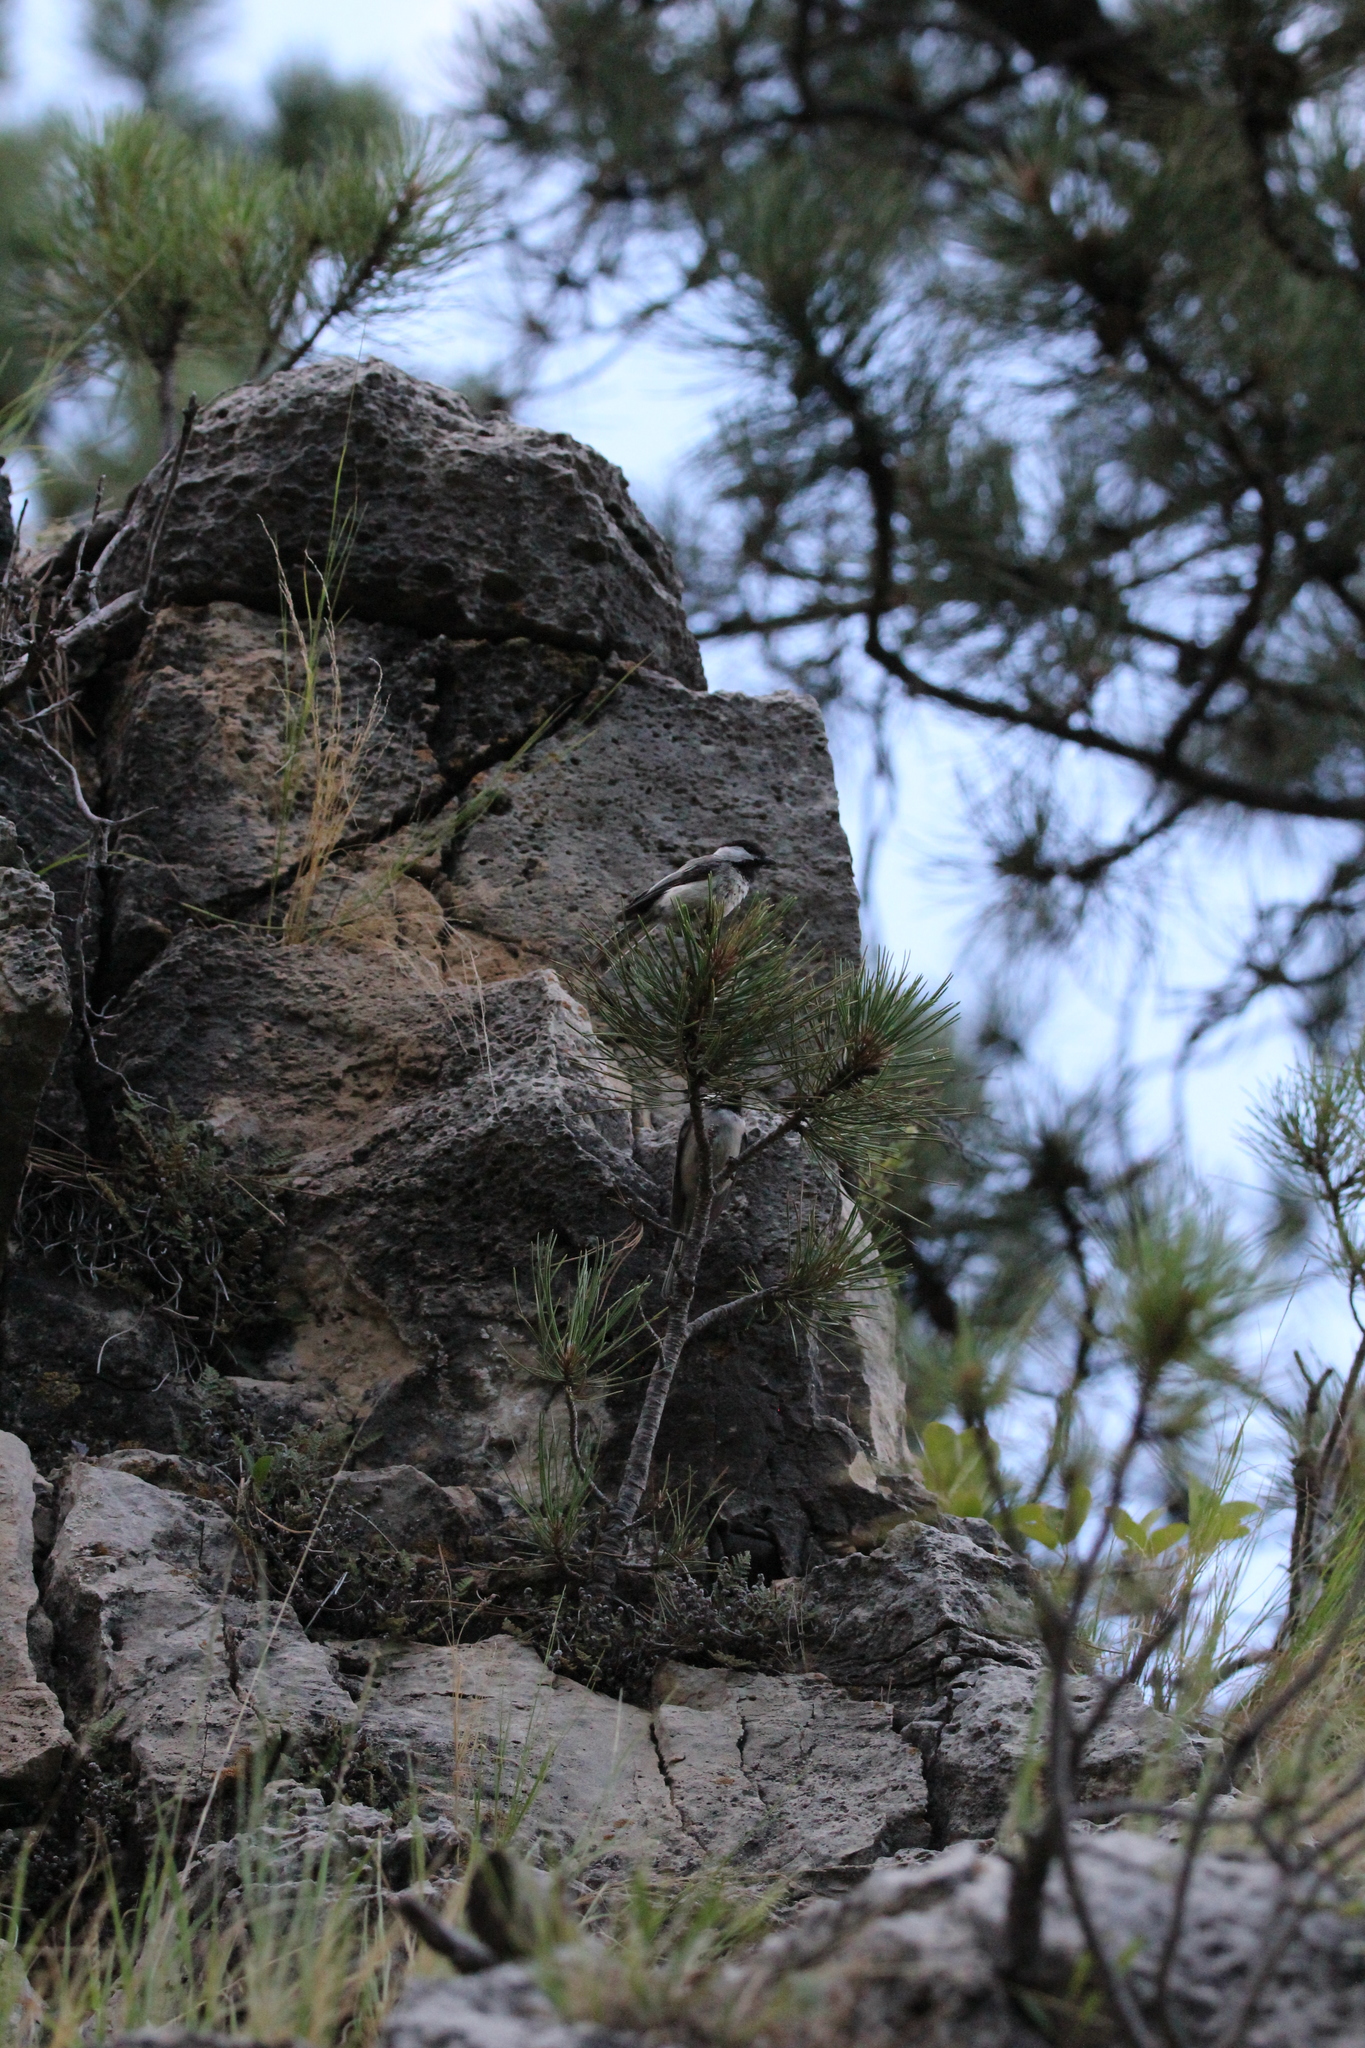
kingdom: Animalia
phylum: Chordata
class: Aves
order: Passeriformes
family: Paridae
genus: Poecile
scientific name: Poecile atricapillus
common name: Black-capped chickadee
